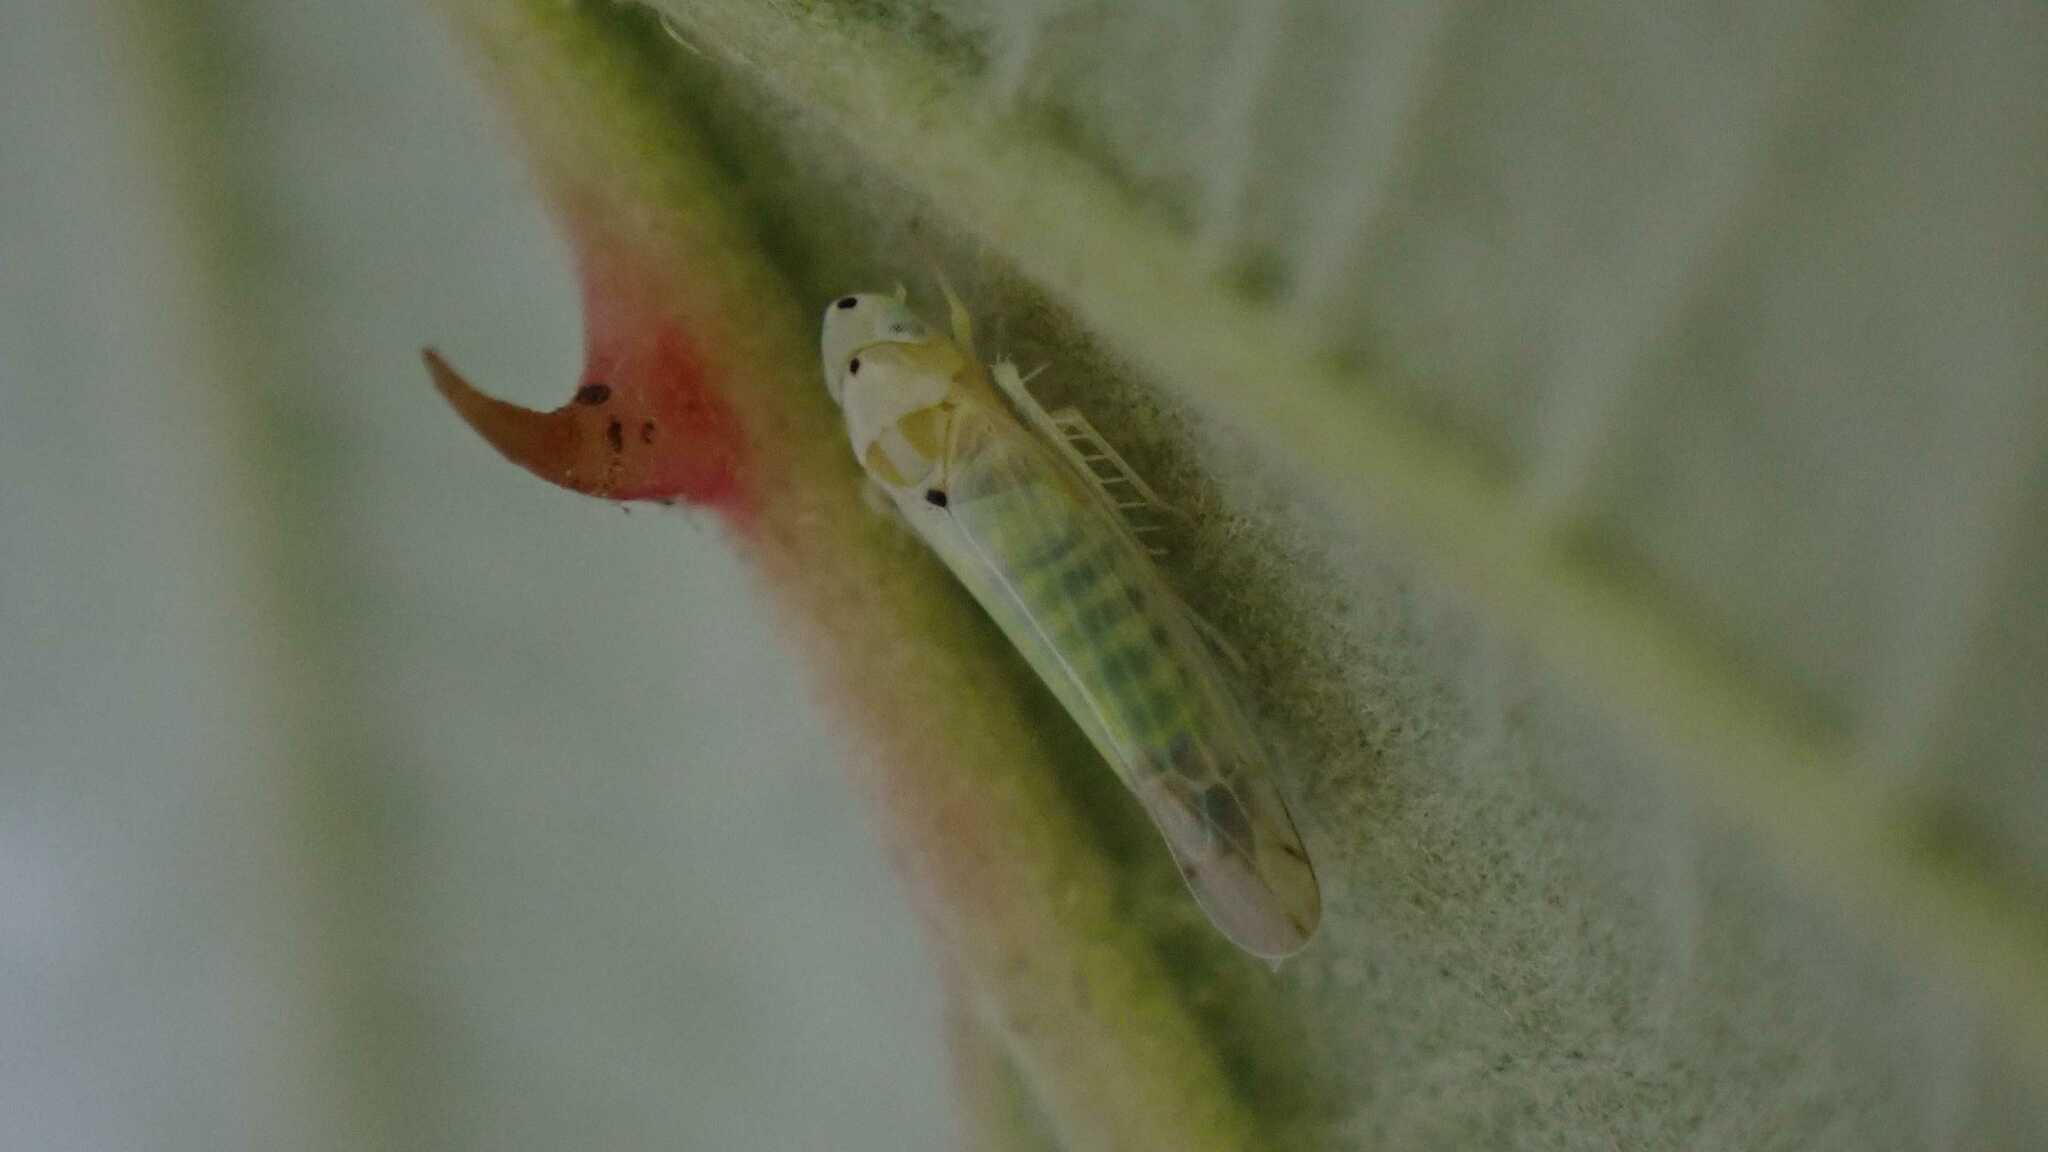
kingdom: Animalia
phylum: Arthropoda
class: Insecta
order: Hemiptera
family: Cicadellidae
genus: Ribautiana
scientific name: Ribautiana debilis
